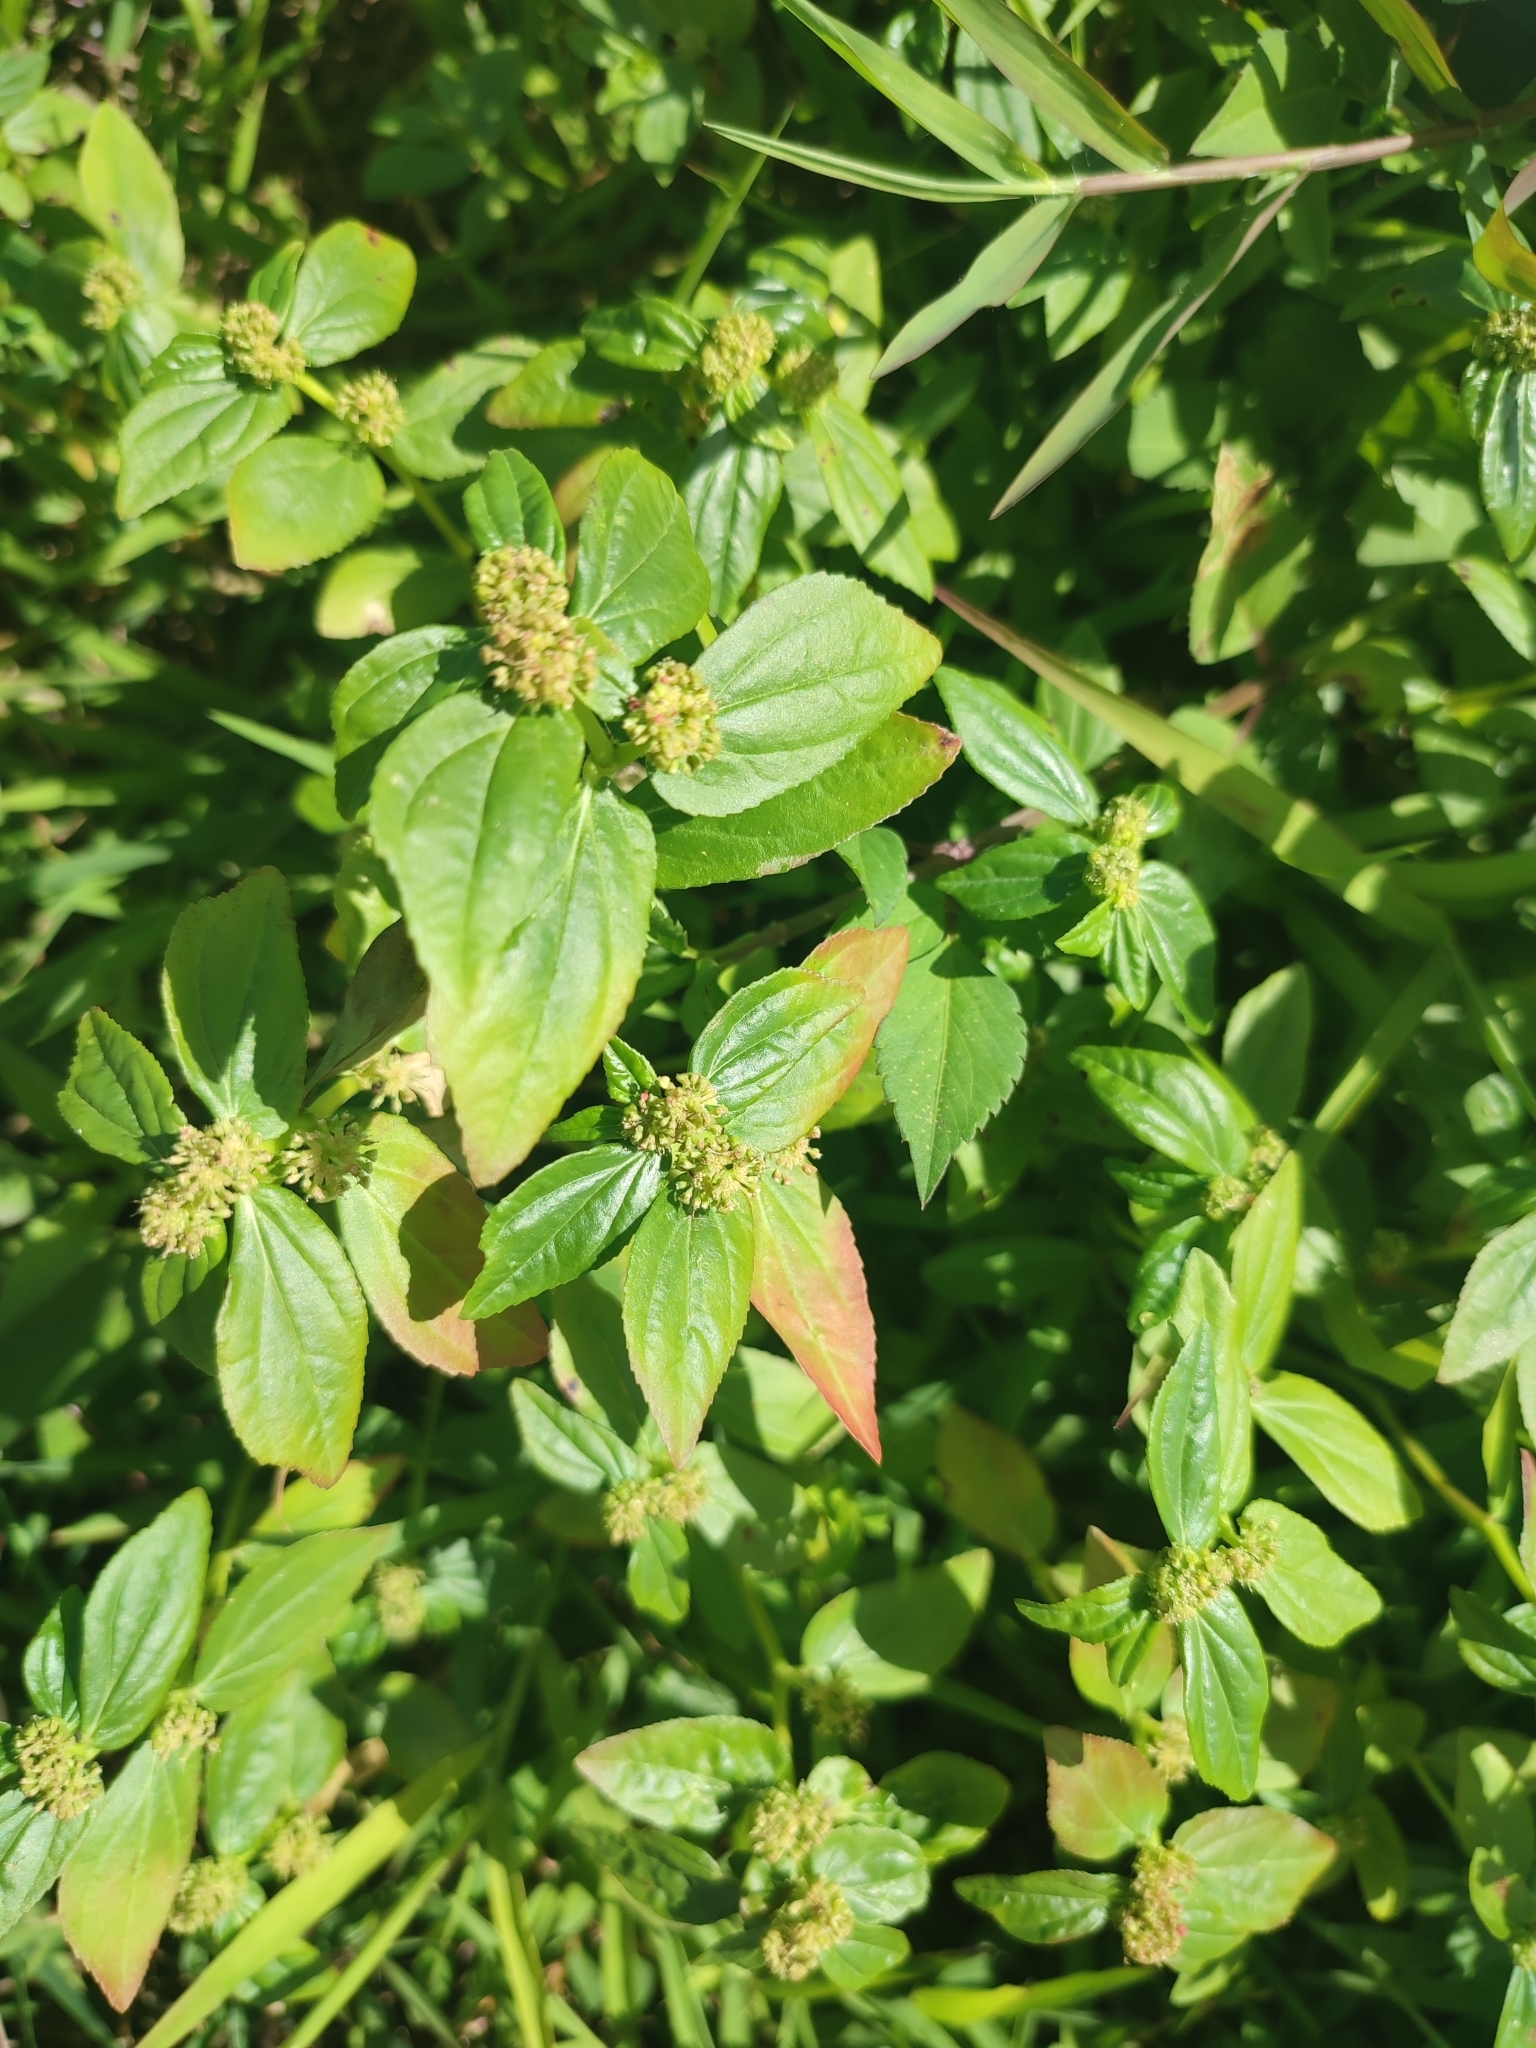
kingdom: Plantae
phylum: Tracheophyta
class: Magnoliopsida
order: Malpighiales
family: Euphorbiaceae
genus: Euphorbia
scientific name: Euphorbia hirta
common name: Pillpod sandmat
